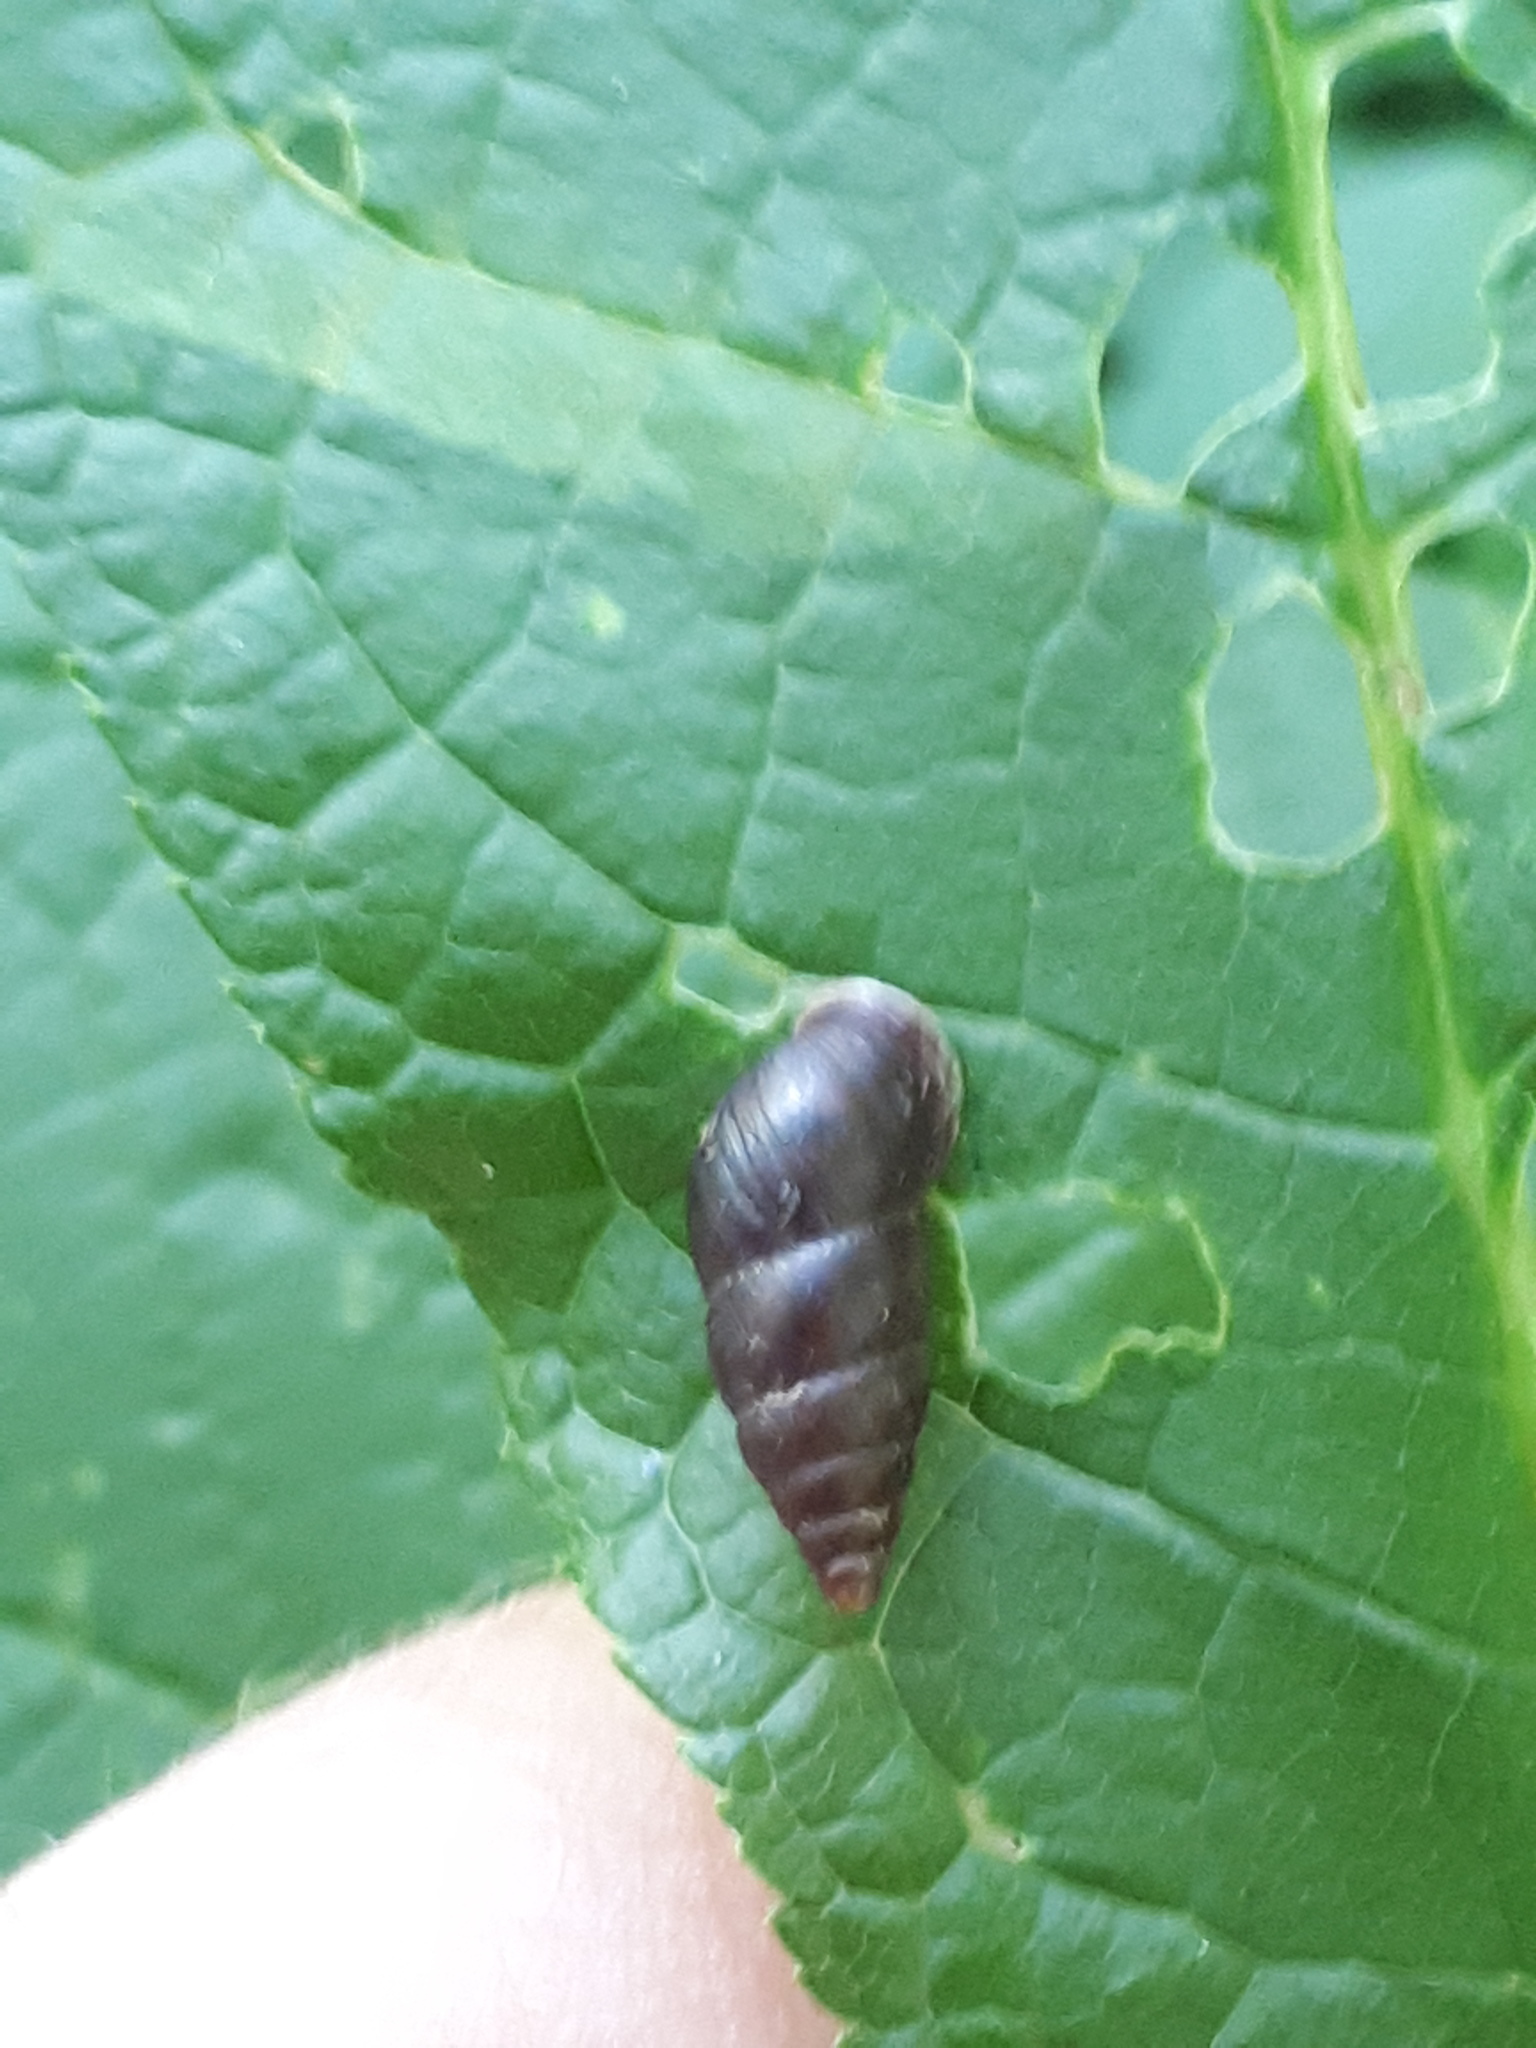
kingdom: Animalia
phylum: Mollusca
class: Gastropoda
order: Stylommatophora
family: Enidae
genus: Ena
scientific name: Ena montana
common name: Mountain bulin
